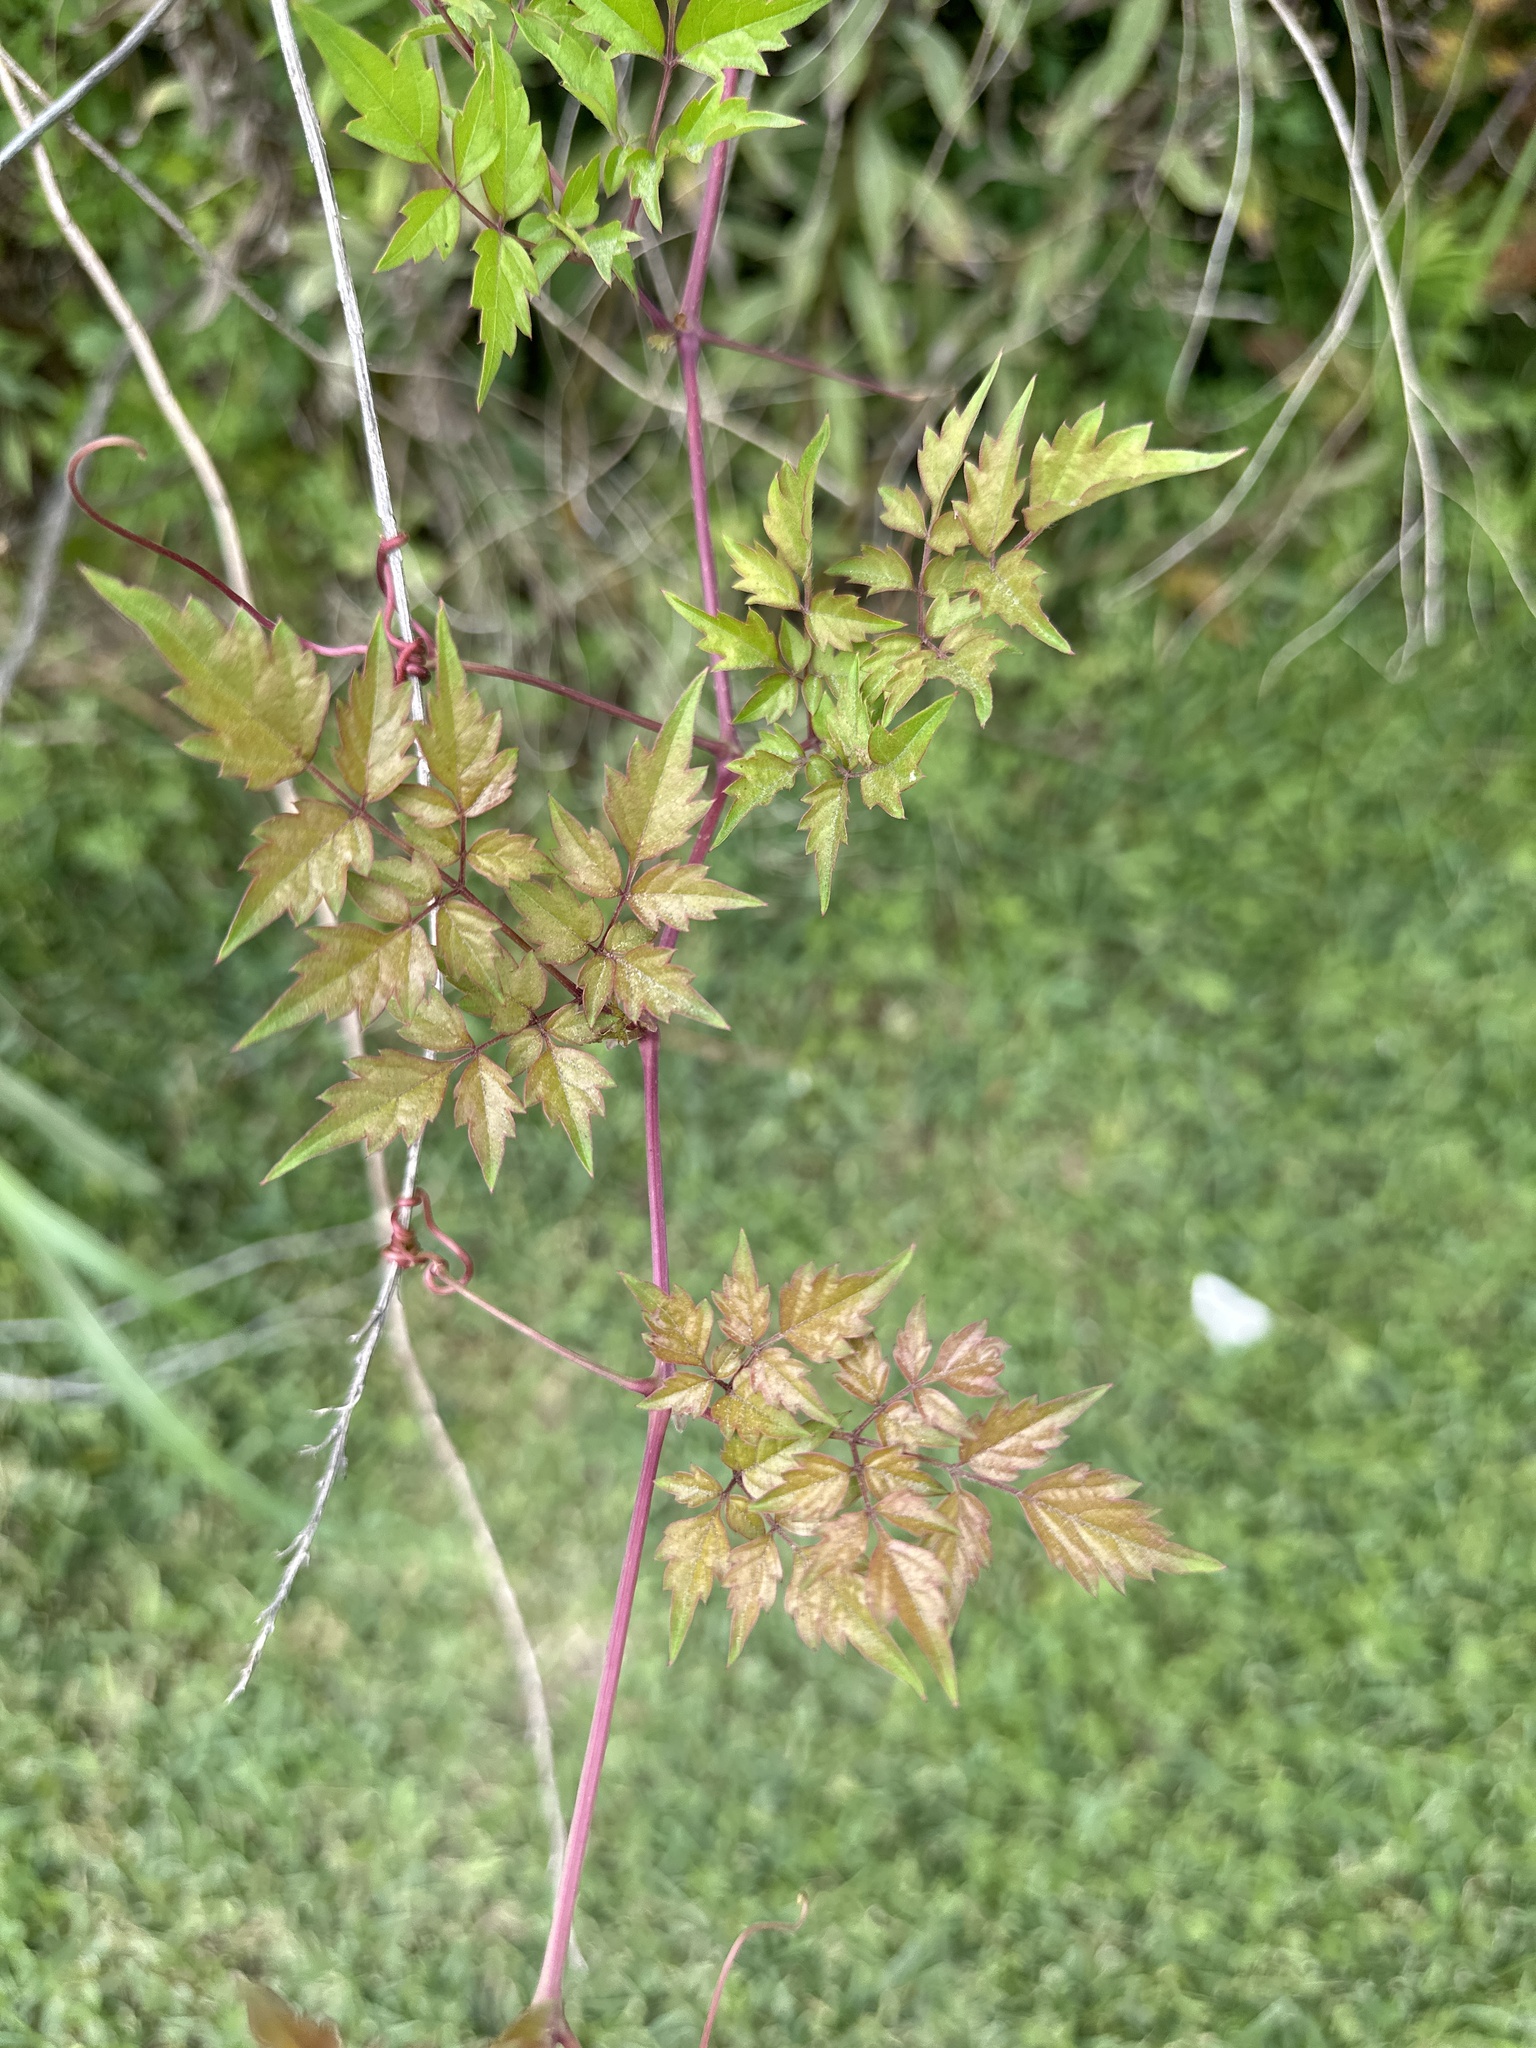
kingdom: Plantae
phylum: Tracheophyta
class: Magnoliopsida
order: Vitales
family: Vitaceae
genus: Nekemias
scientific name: Nekemias arborea
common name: Peppervine
